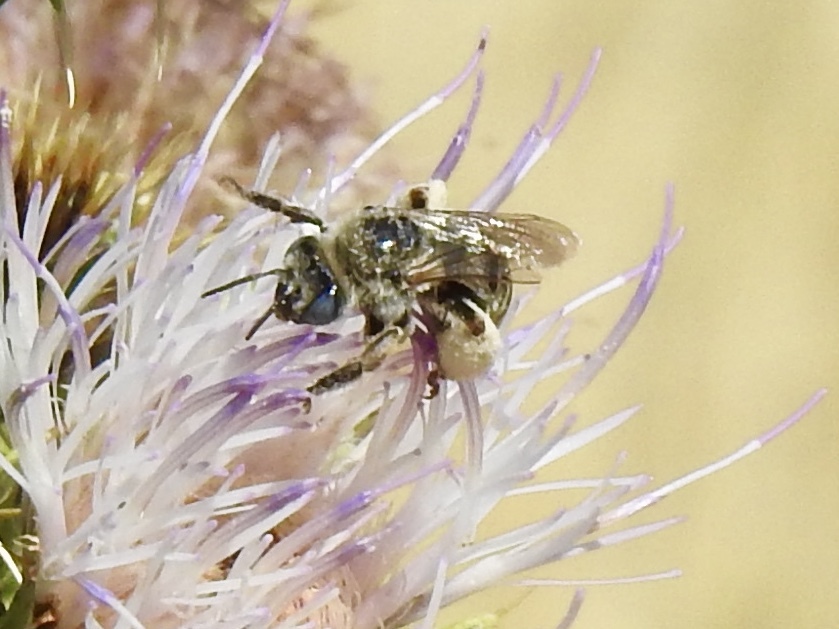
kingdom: Animalia
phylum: Arthropoda
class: Insecta
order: Hymenoptera
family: Apidae
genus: Melissodes
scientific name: Melissodes
